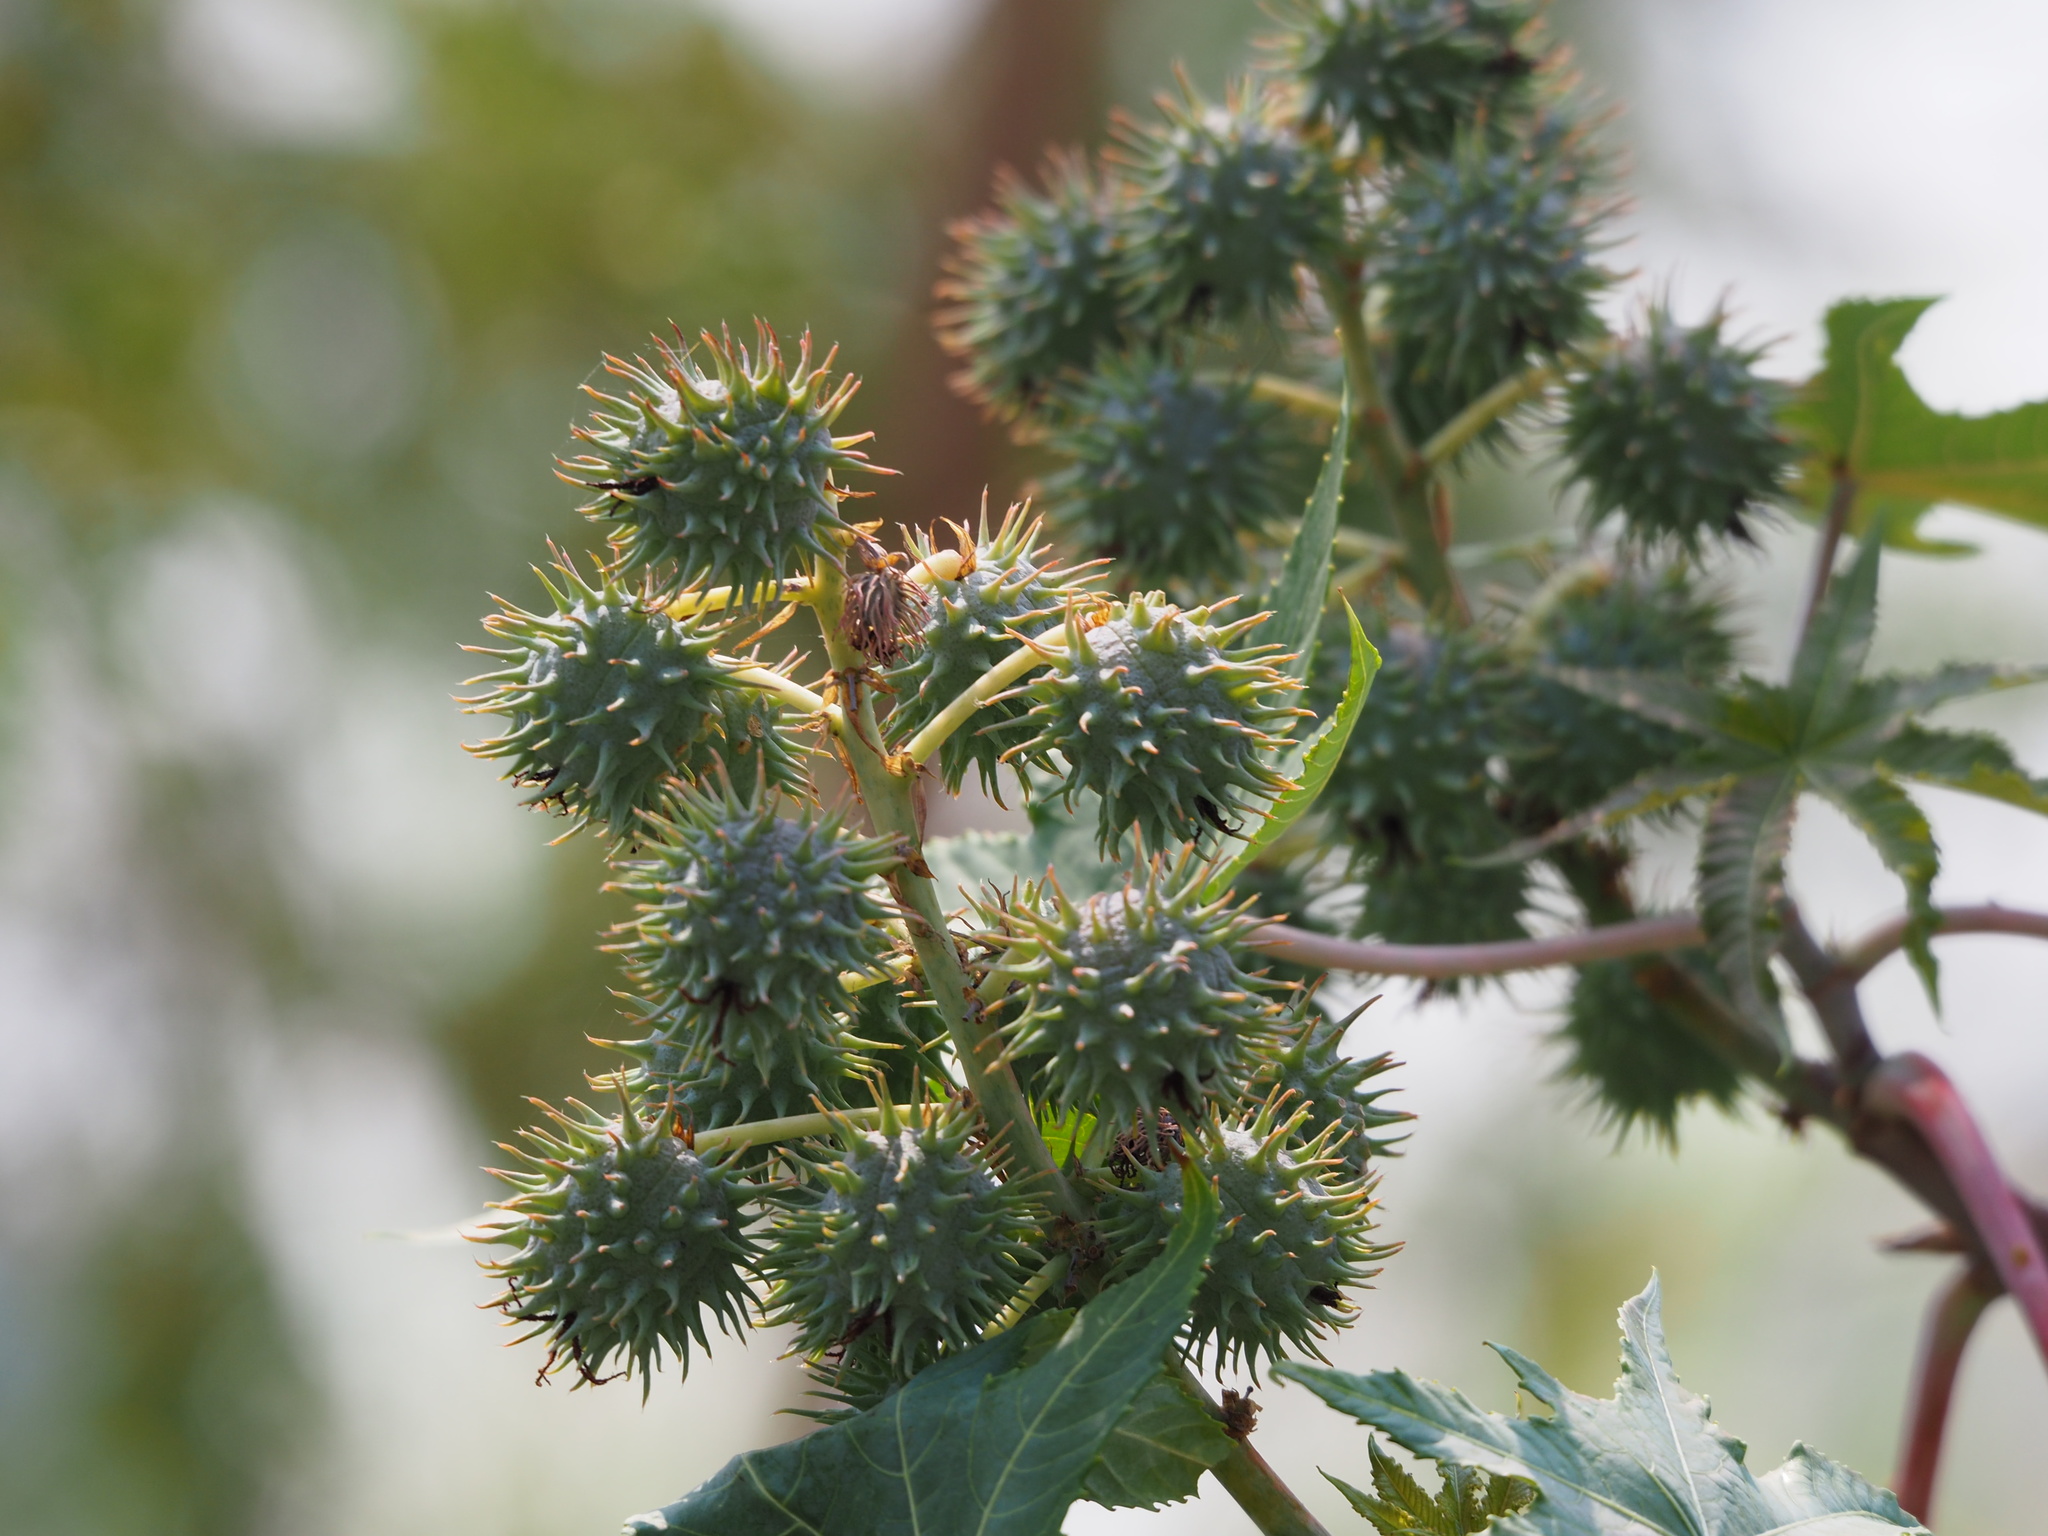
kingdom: Plantae
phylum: Tracheophyta
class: Magnoliopsida
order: Malpighiales
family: Euphorbiaceae
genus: Ricinus
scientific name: Ricinus communis
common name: Castor-oil-plant
